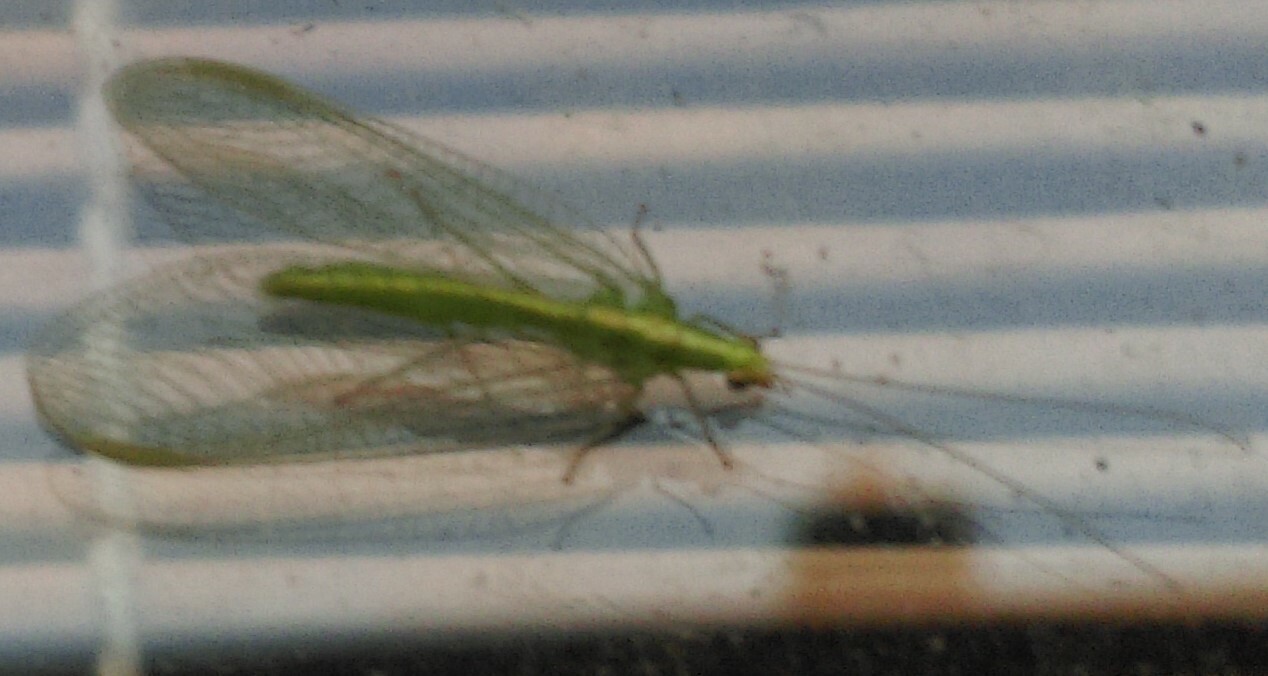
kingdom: Animalia
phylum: Arthropoda
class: Insecta
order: Neuroptera
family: Chrysopidae
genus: Chrysoperla
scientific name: Chrysoperla
